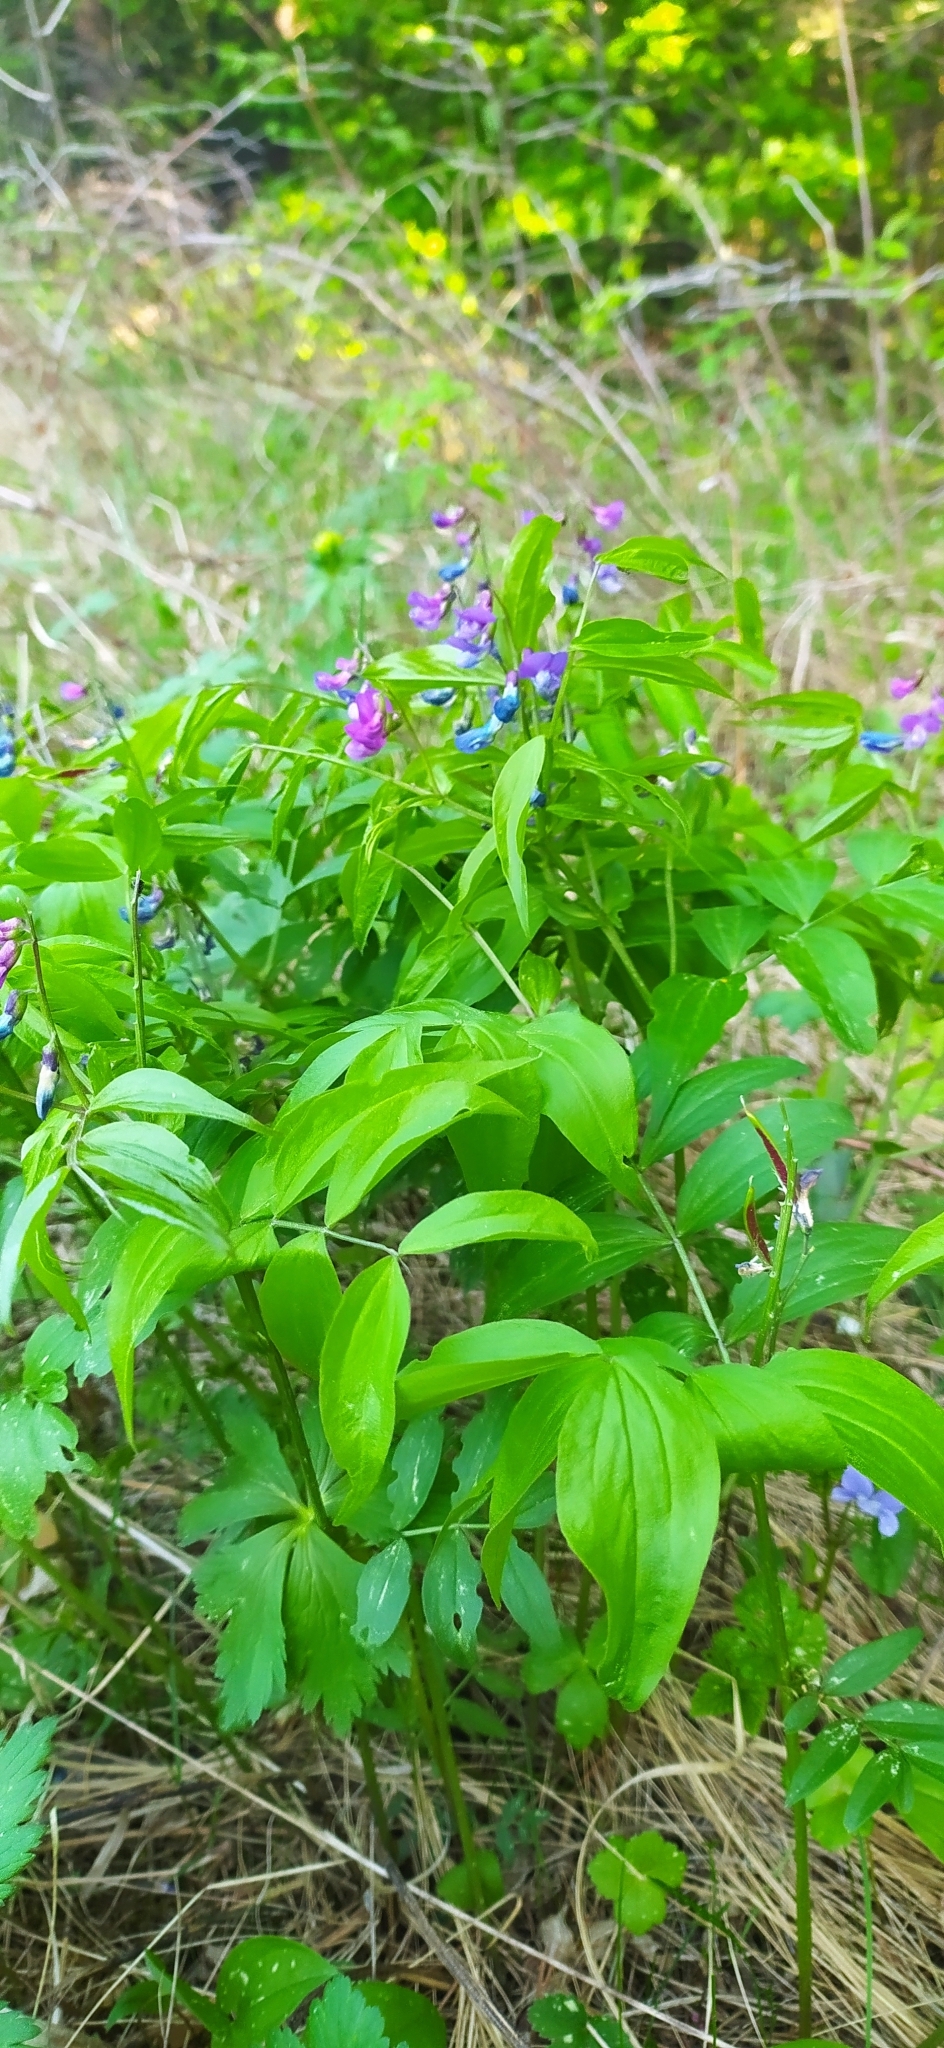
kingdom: Plantae
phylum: Tracheophyta
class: Magnoliopsida
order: Fabales
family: Fabaceae
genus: Lathyrus
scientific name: Lathyrus vernus
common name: Spring pea
